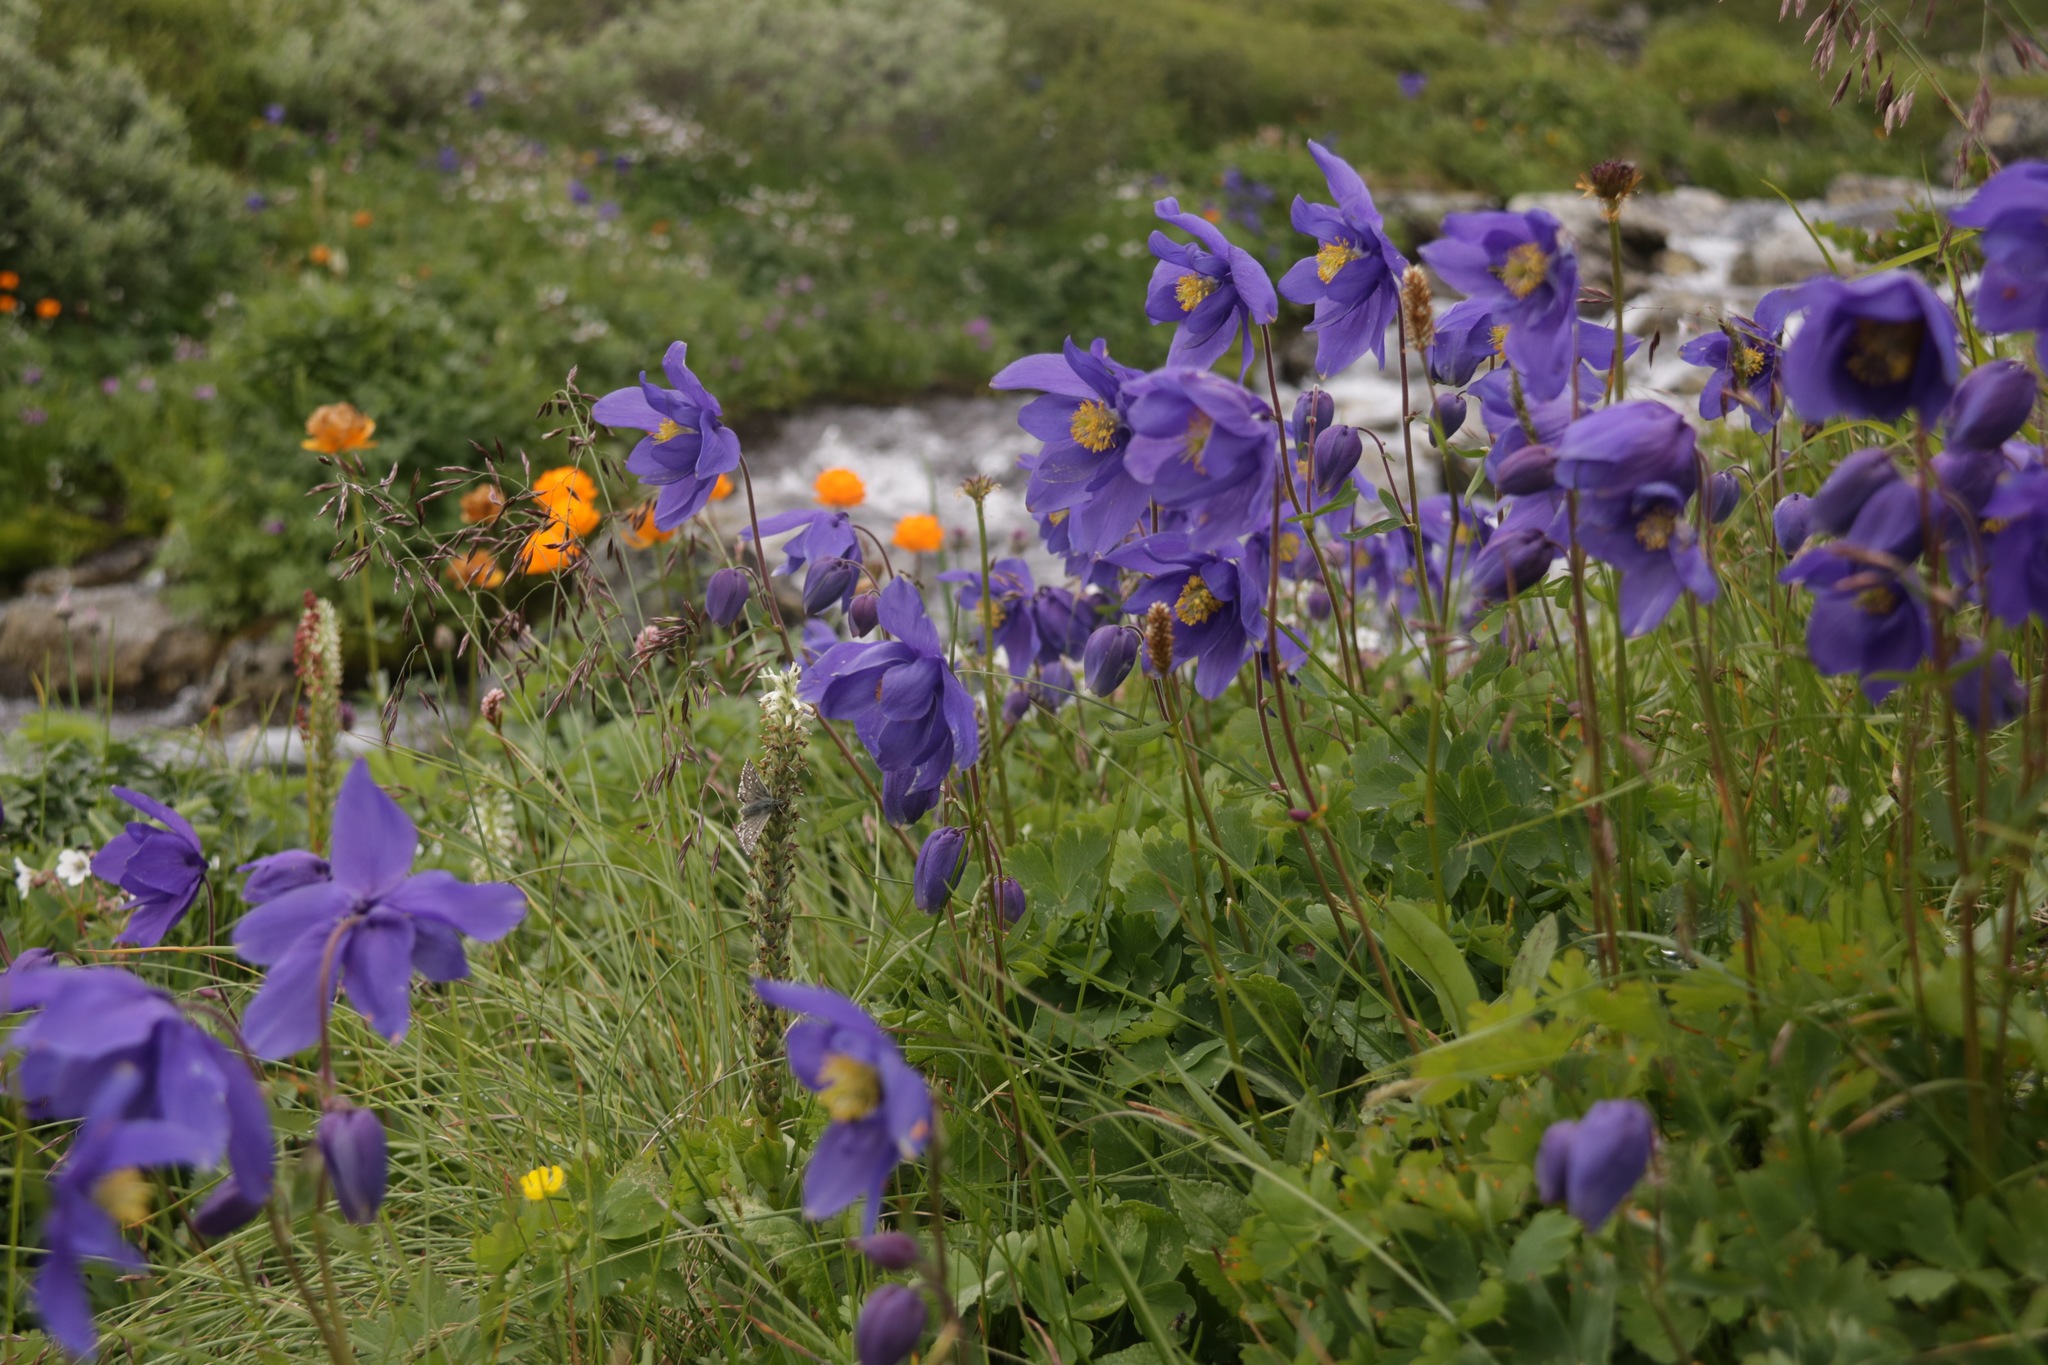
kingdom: Plantae
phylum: Tracheophyta
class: Magnoliopsida
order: Ranunculales
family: Ranunculaceae
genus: Aquilegia
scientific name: Aquilegia glandulosa
